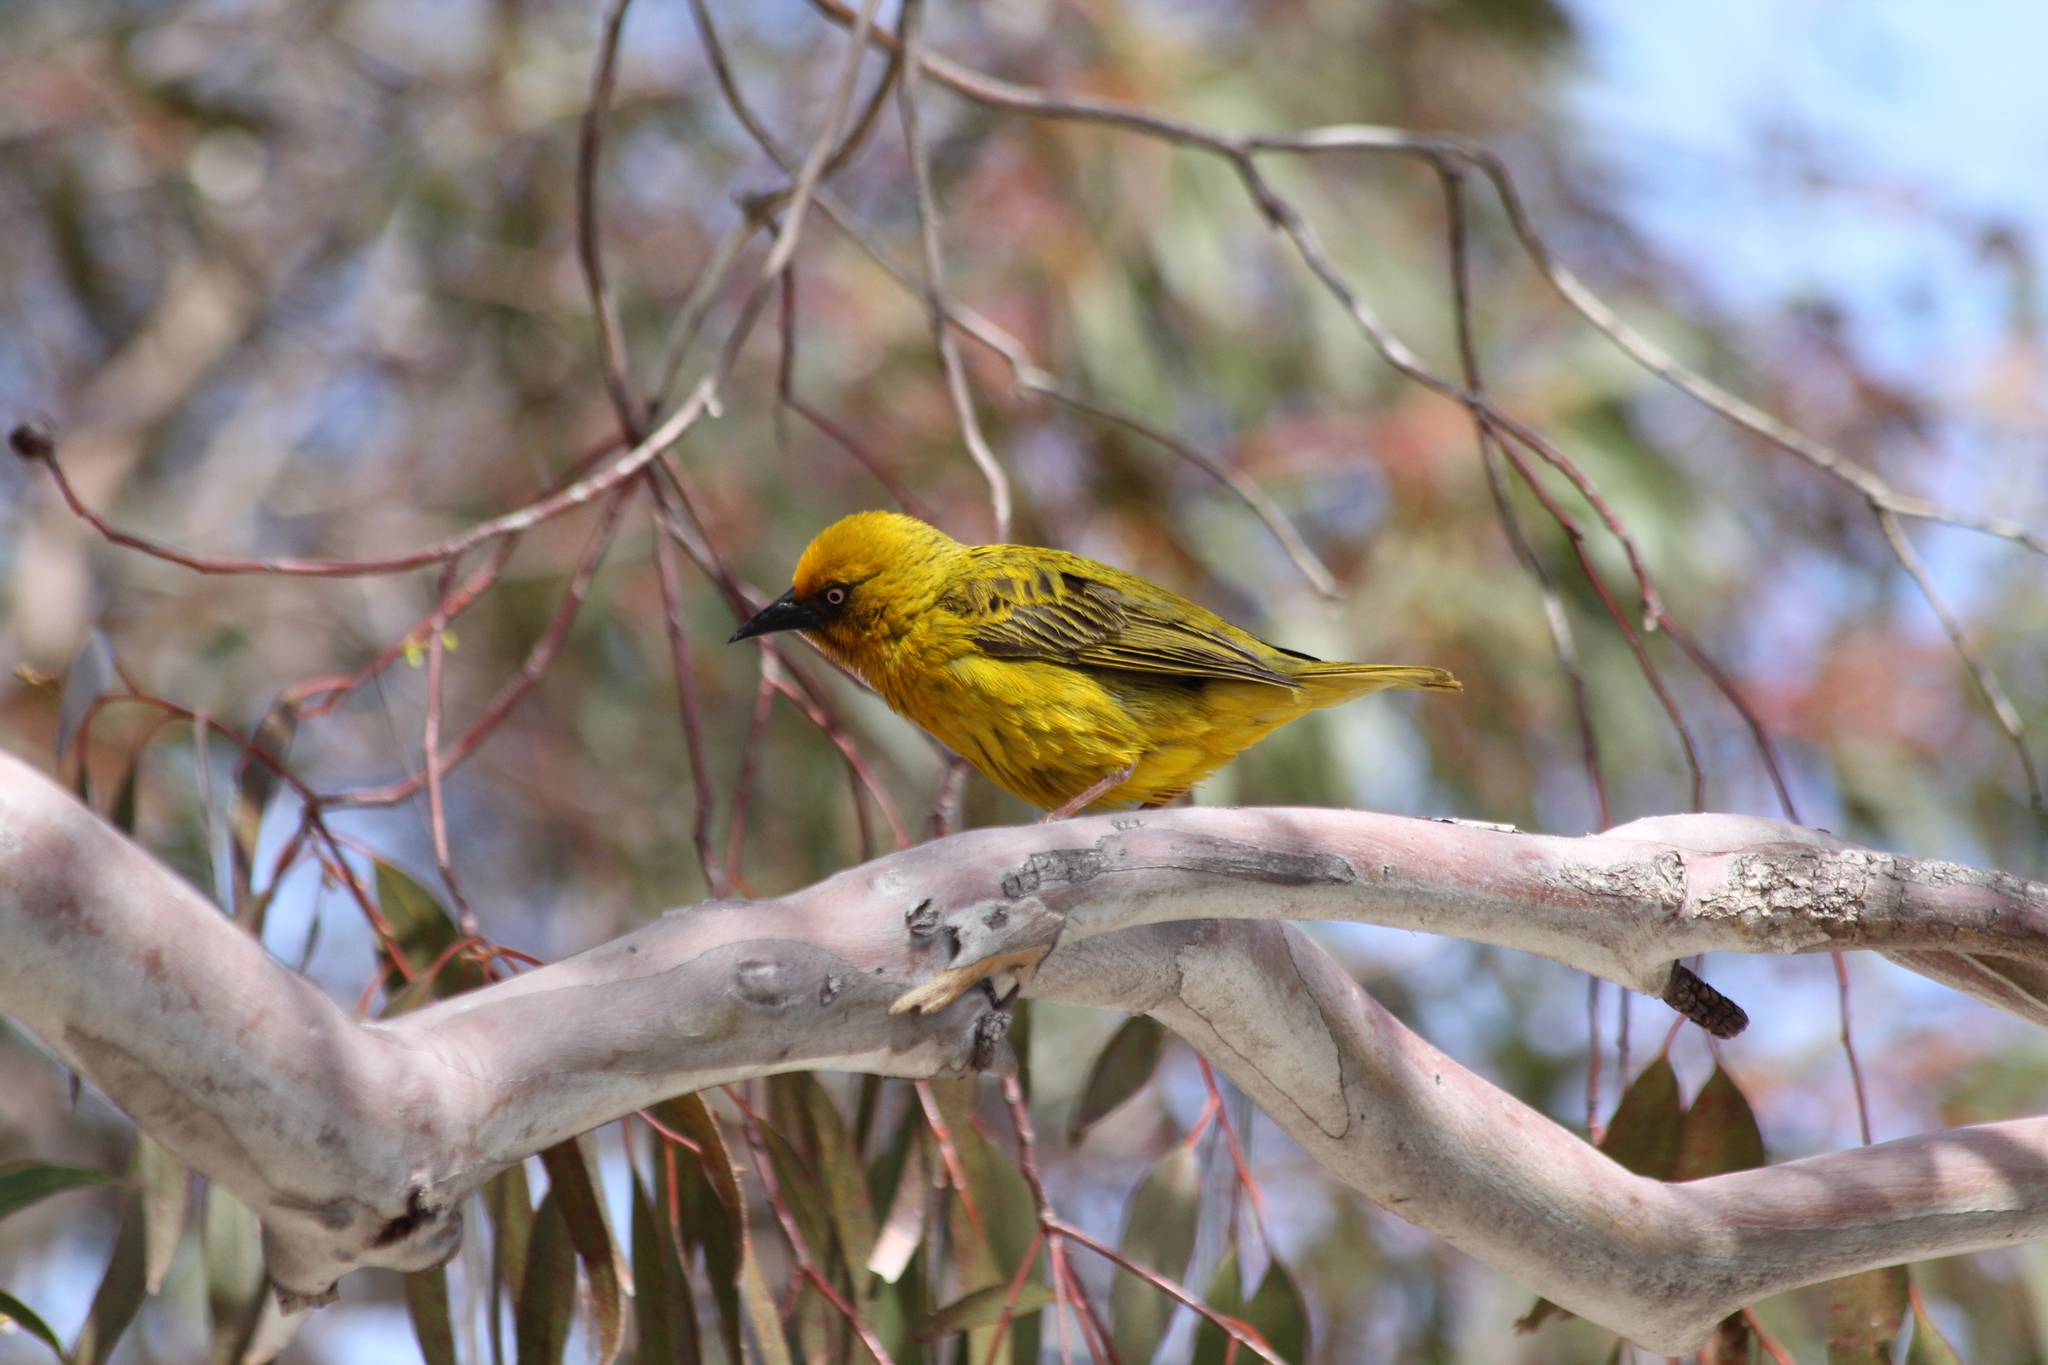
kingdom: Animalia
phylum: Chordata
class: Aves
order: Passeriformes
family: Ploceidae
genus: Ploceus
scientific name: Ploceus capensis
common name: Cape weaver
